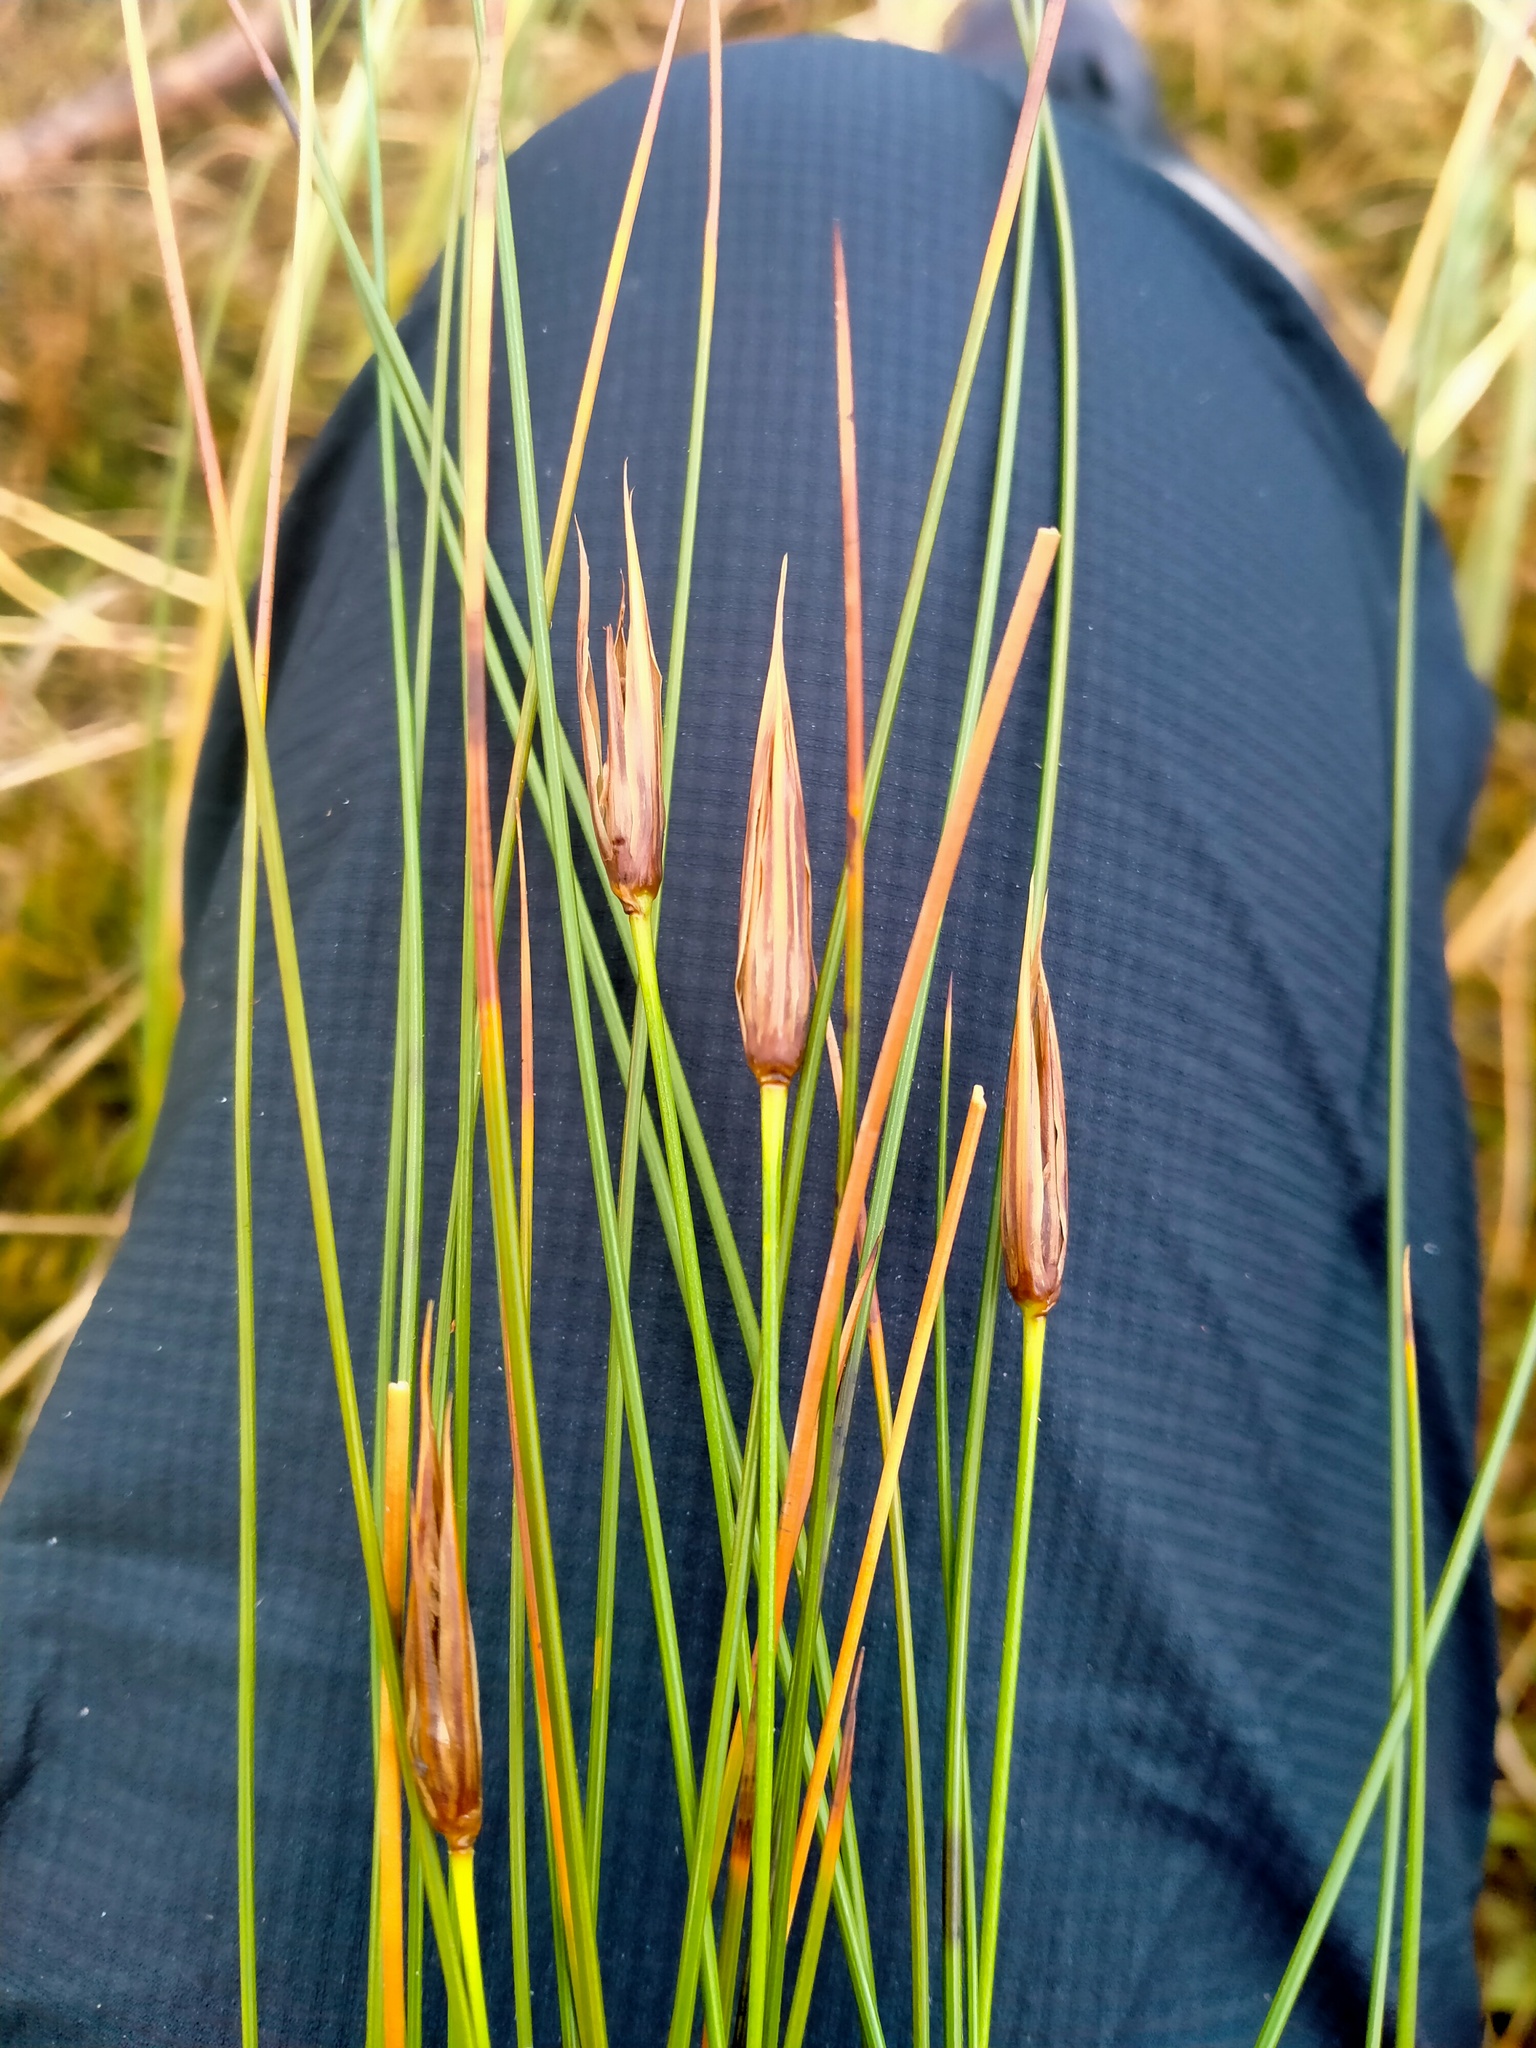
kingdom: Plantae
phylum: Tracheophyta
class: Liliopsida
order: Poales
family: Juncaceae
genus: Marsippospermum
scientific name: Marsippospermum gracile
